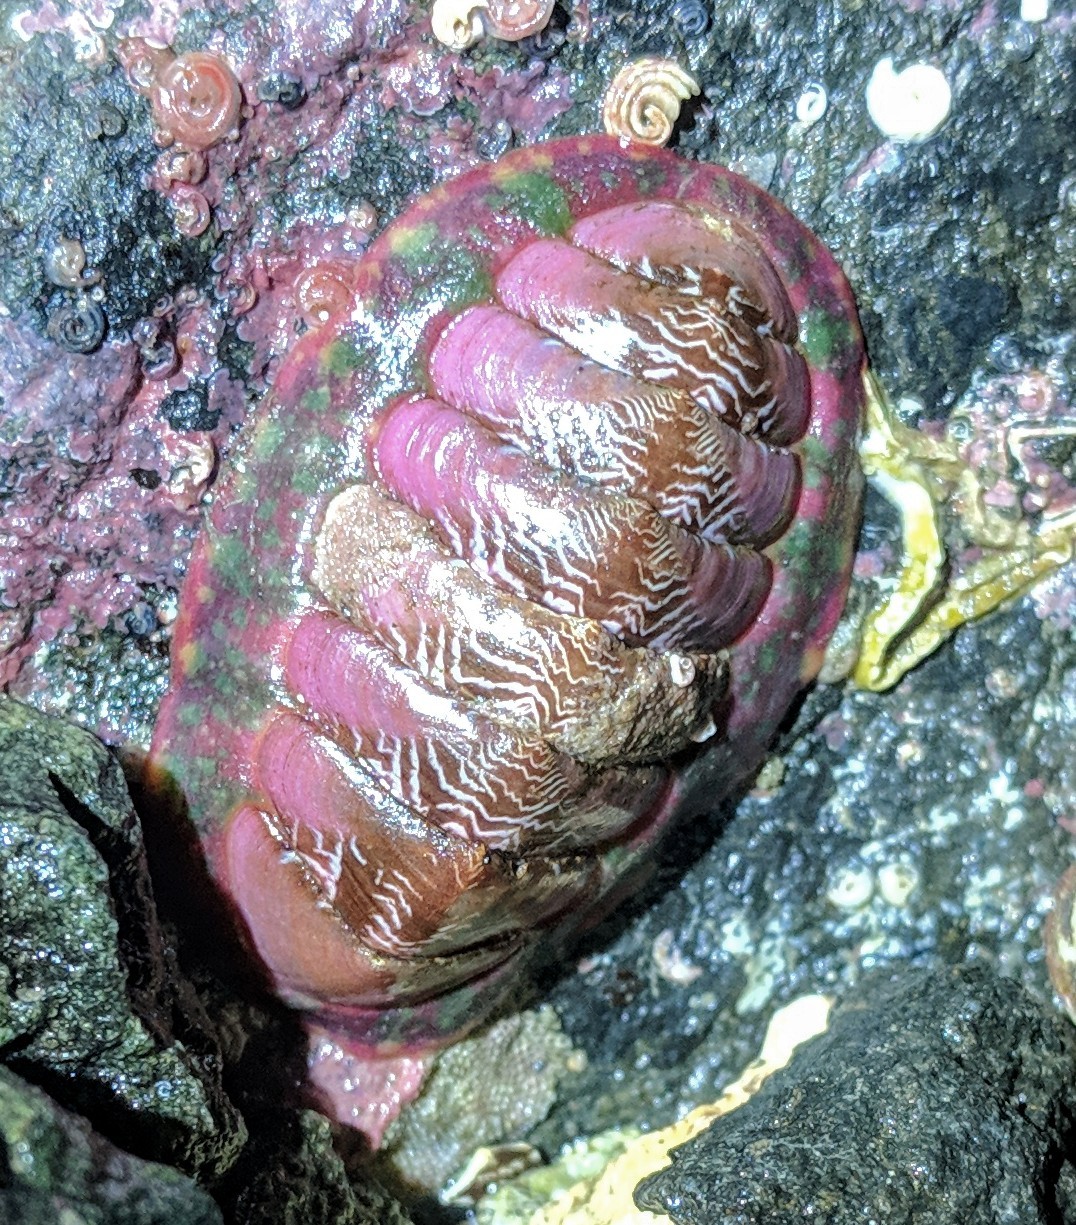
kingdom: Animalia
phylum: Mollusca
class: Polyplacophora
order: Chitonida
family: Tonicellidae
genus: Tonicella
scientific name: Tonicella insignis
